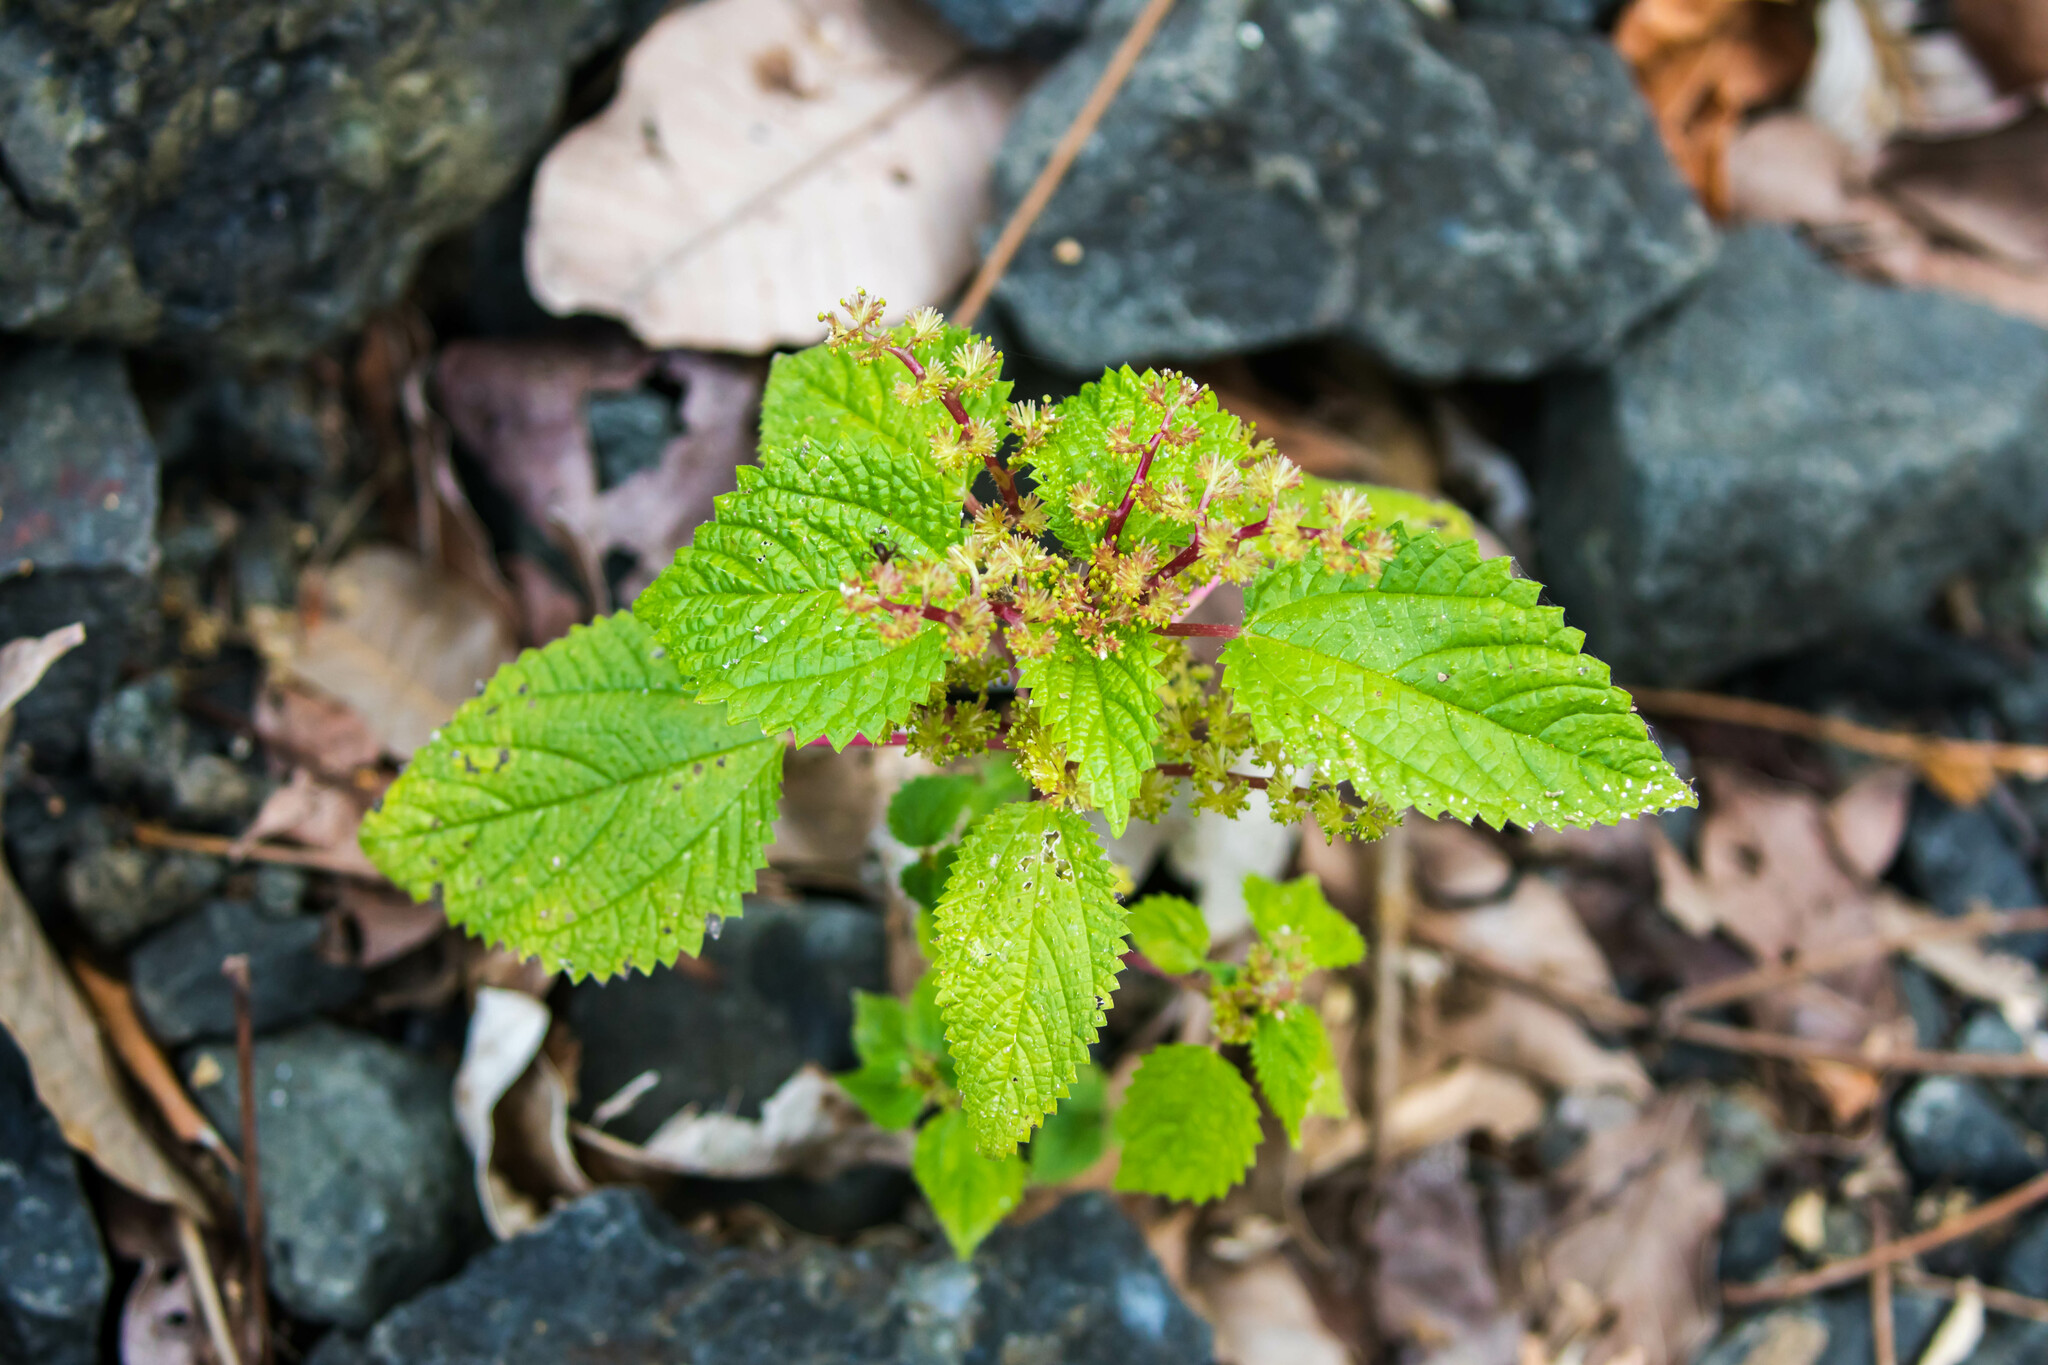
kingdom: Plantae
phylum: Tracheophyta
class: Magnoliopsida
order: Rosales
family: Urticaceae
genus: Laportea
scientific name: Laportea aestuans
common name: West indian woodnettle
